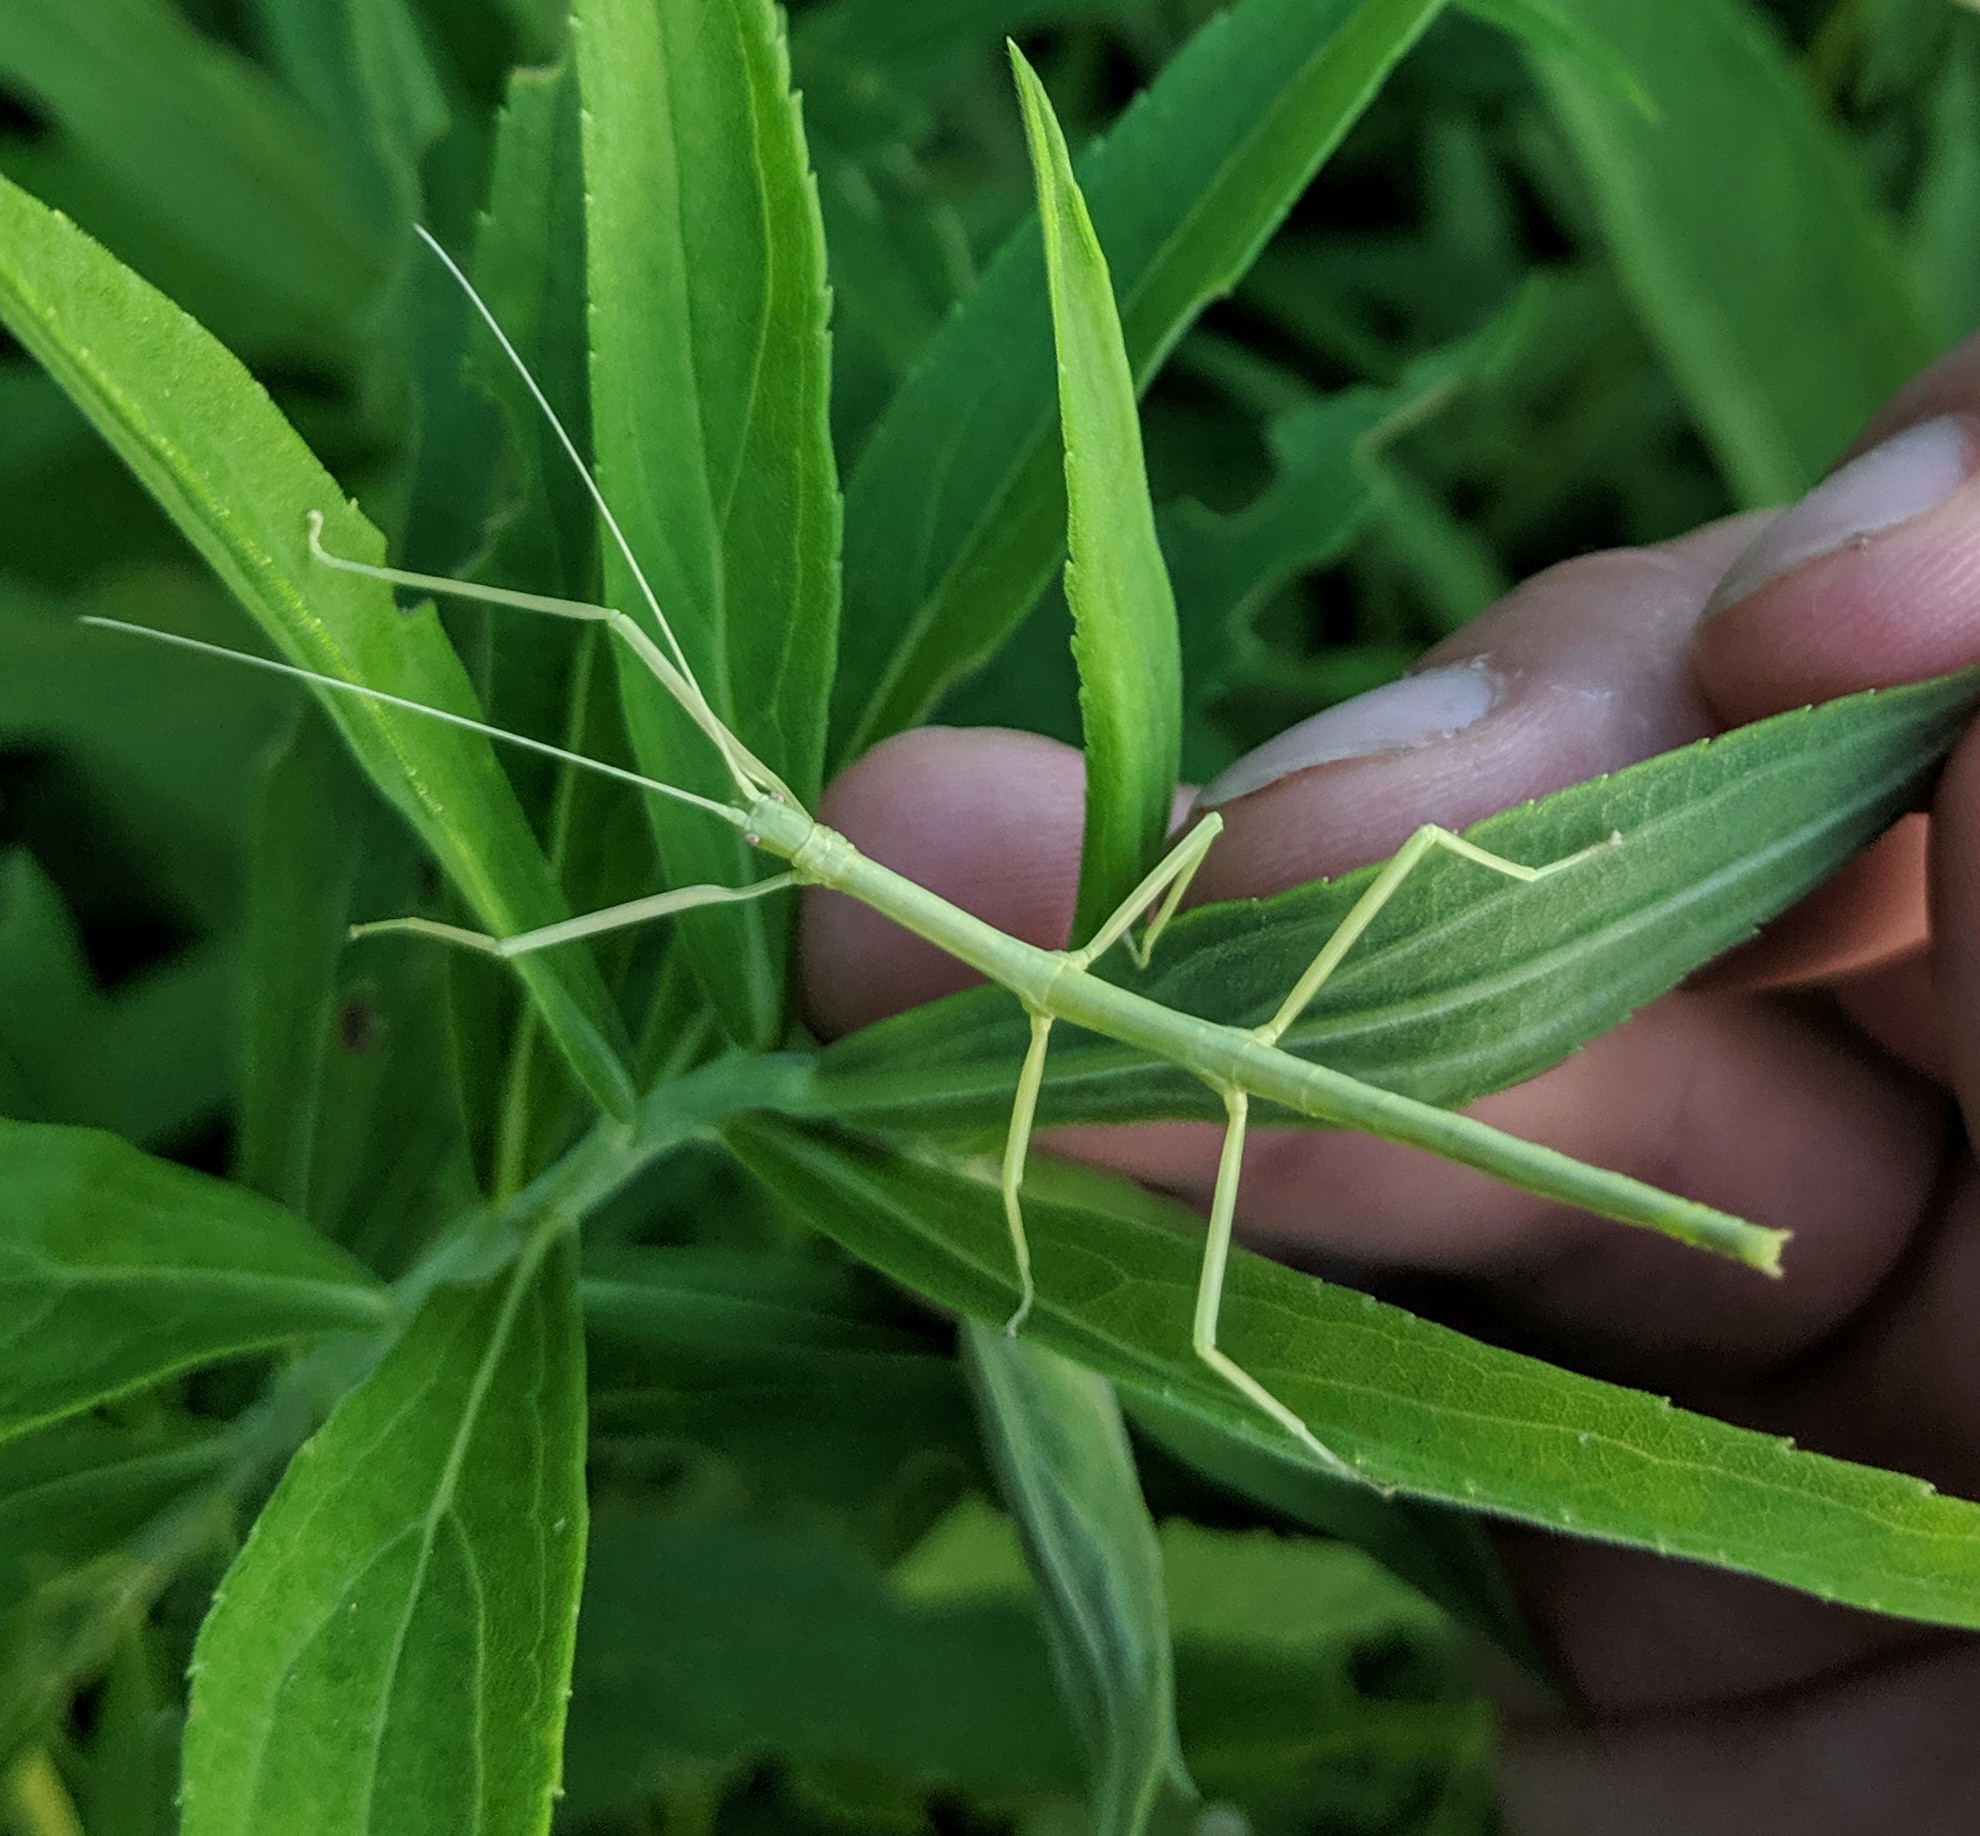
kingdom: Animalia
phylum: Arthropoda
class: Insecta
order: Phasmida
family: Diapheromeridae
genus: Diapheromera
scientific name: Diapheromera femorata
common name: Common american walkingstick
